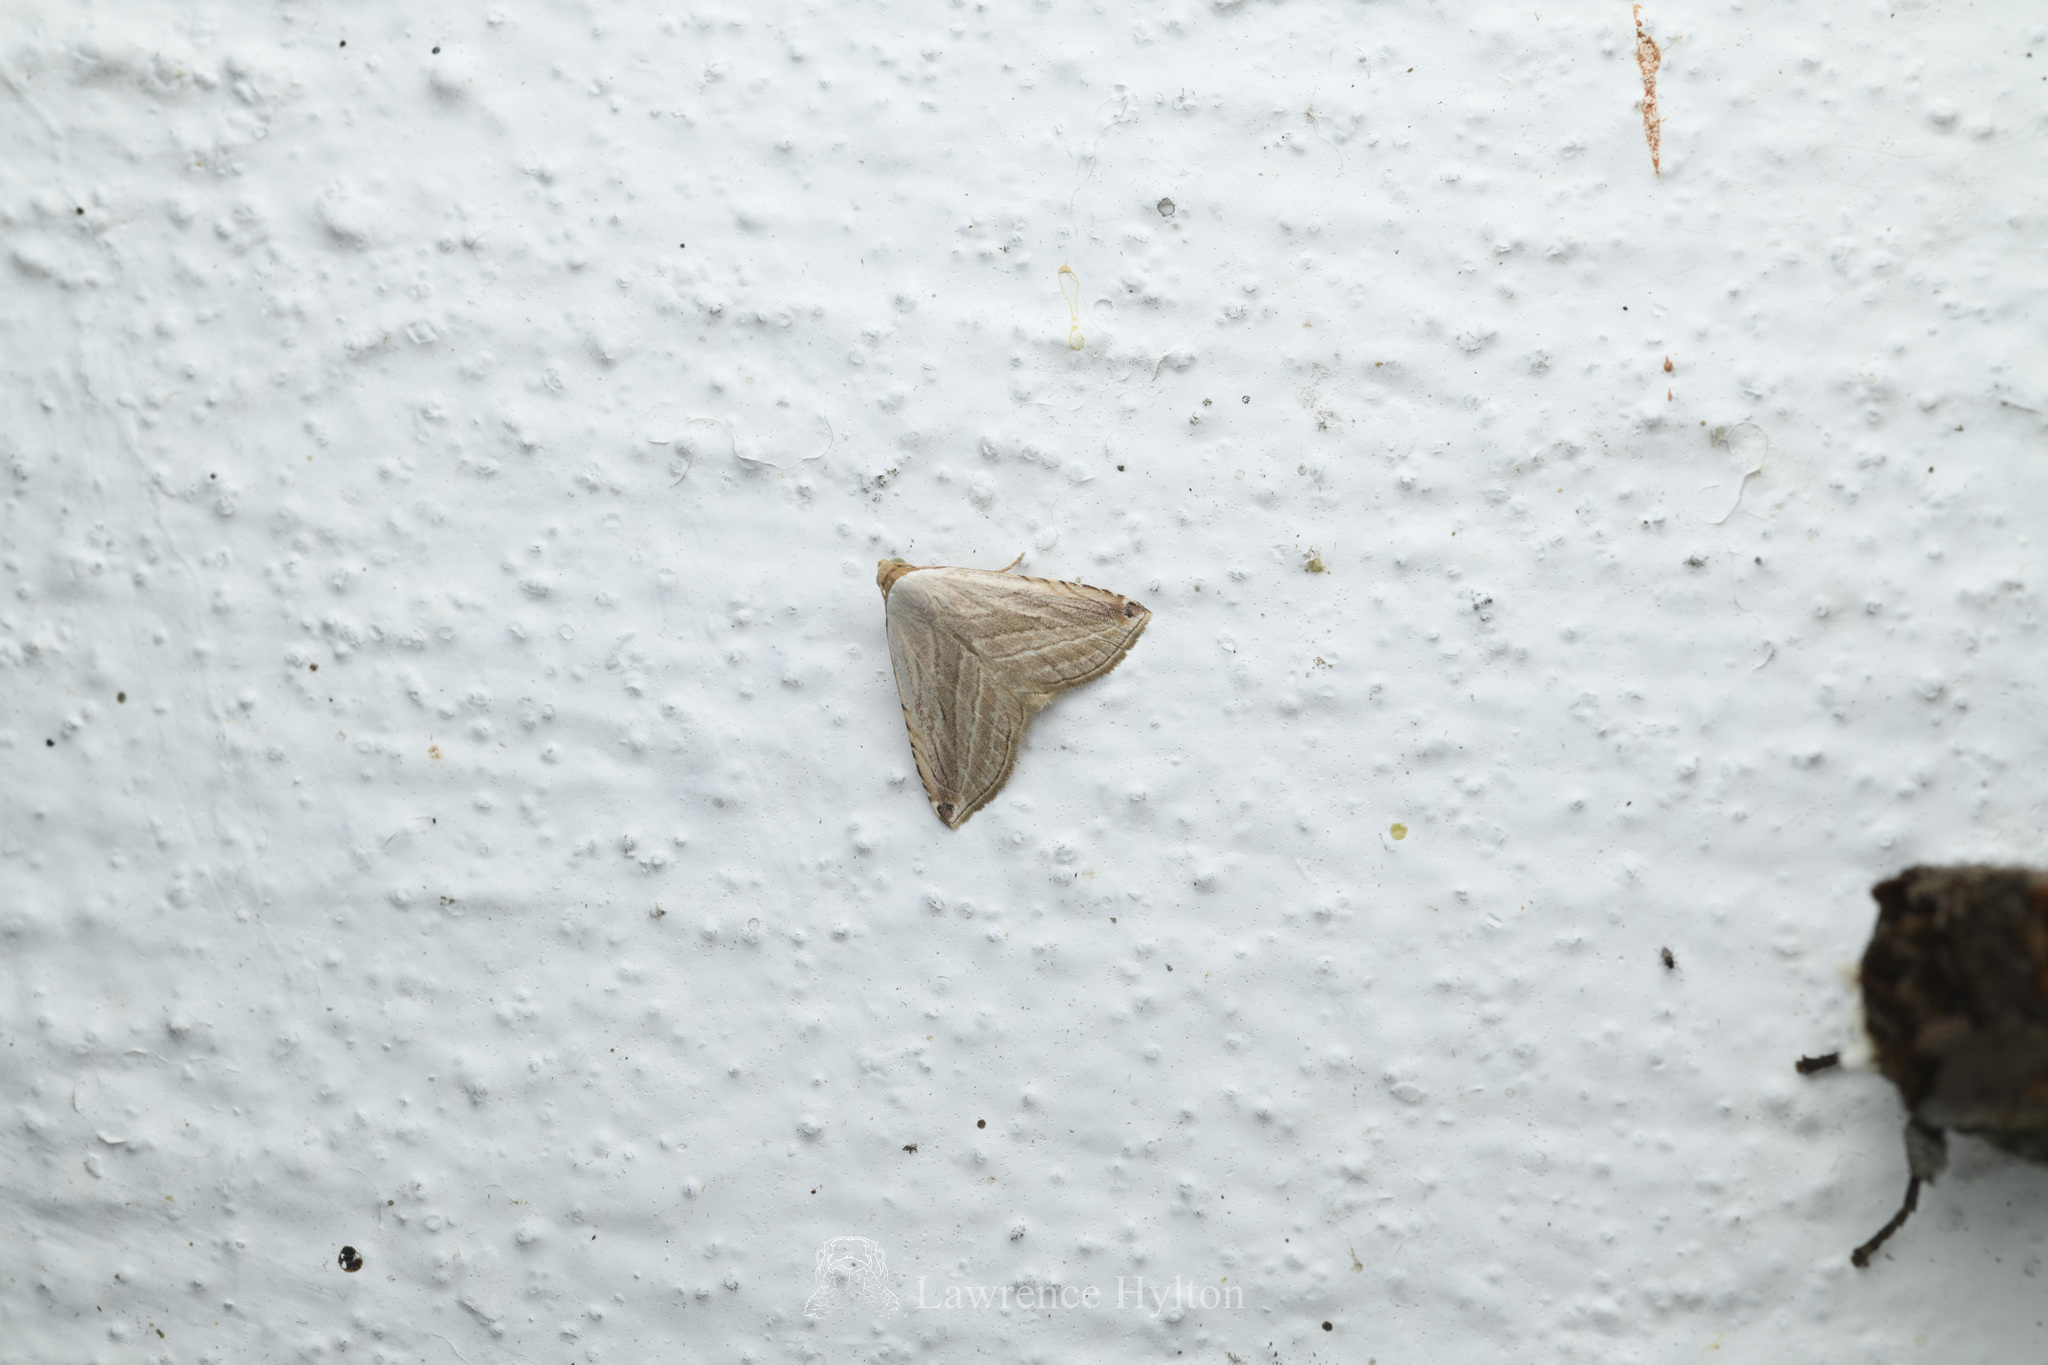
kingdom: Animalia
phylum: Arthropoda
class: Insecta
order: Lepidoptera
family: Noctuidae
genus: Honeyania
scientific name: Honeyania ragusana
